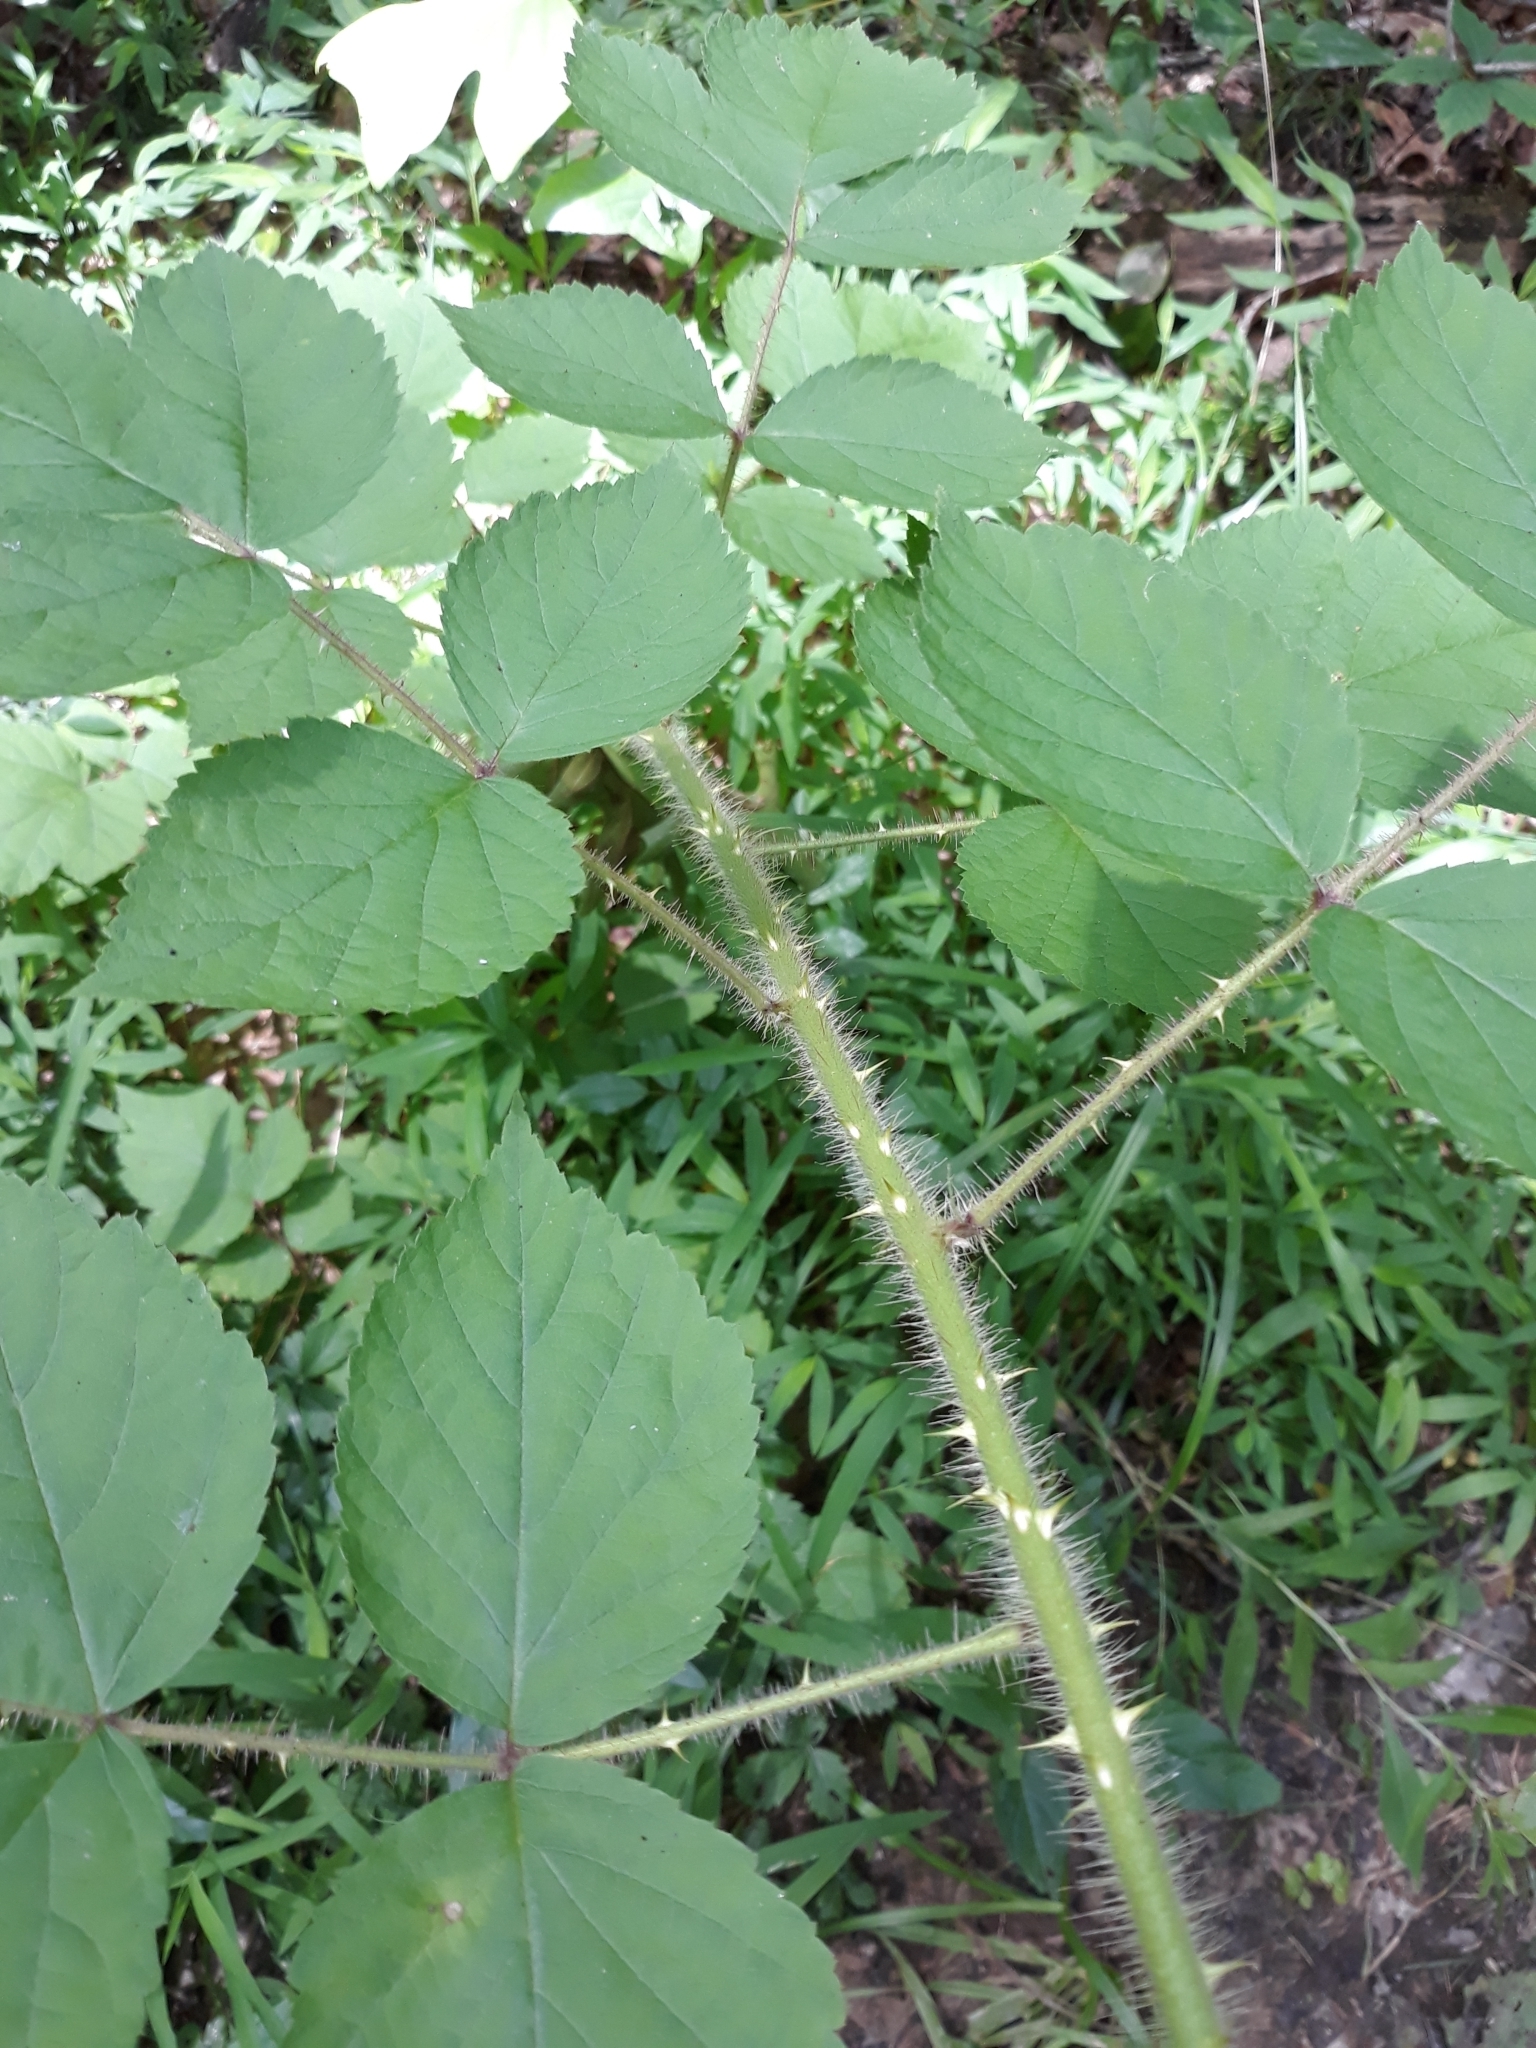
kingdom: Plantae
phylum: Tracheophyta
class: Magnoliopsida
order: Rosales
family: Rosaceae
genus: Rubus
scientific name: Rubus phoenicolasius
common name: Japanese wineberry
